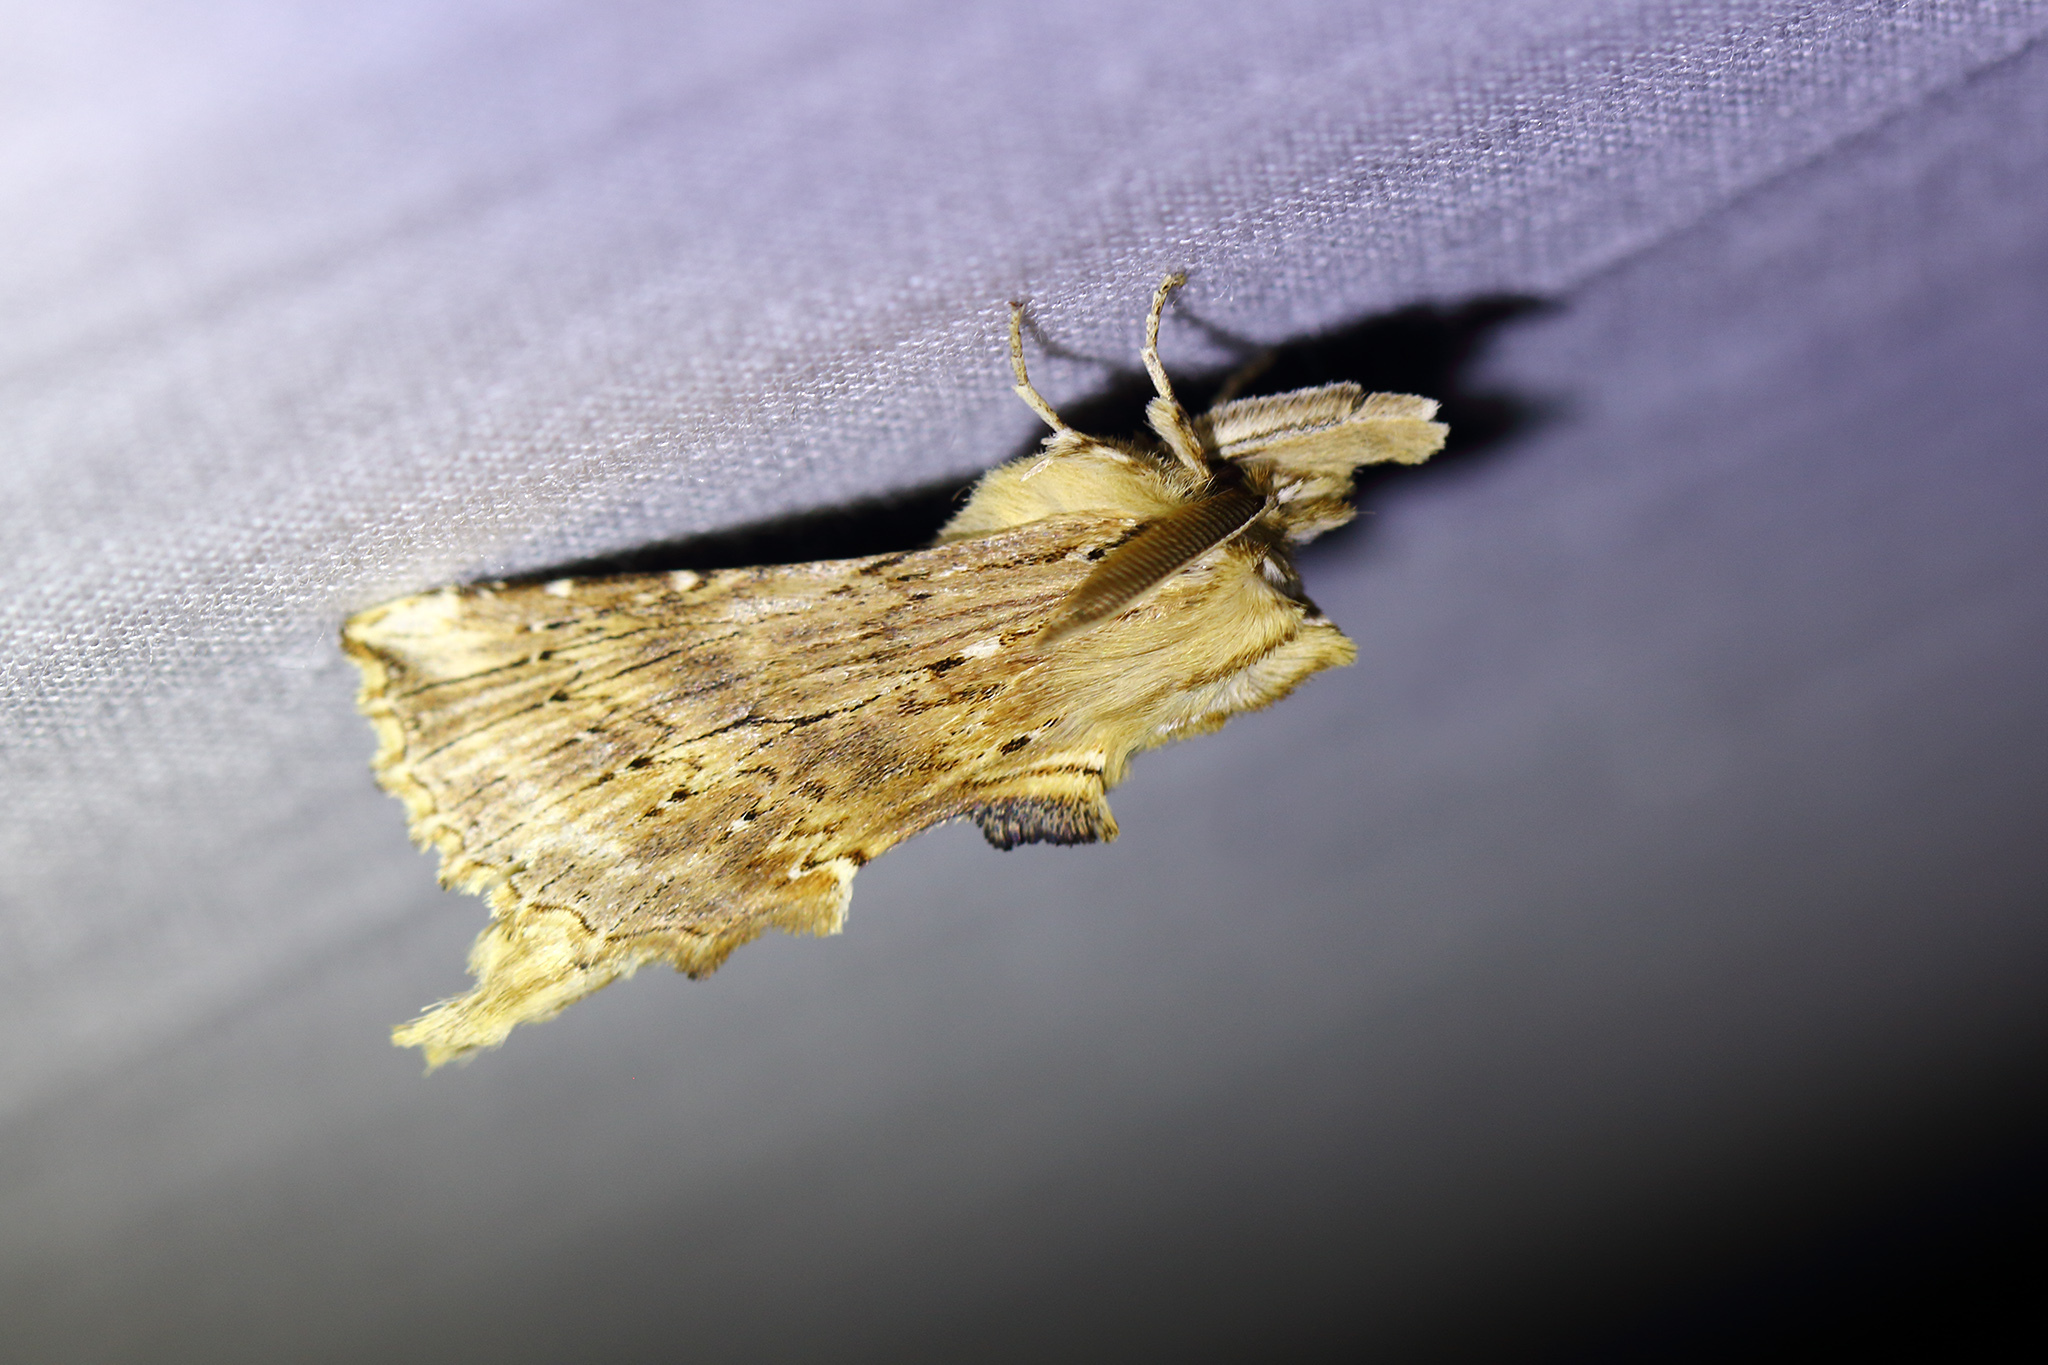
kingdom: Animalia
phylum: Arthropoda
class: Insecta
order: Lepidoptera
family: Notodontidae
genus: Pterostoma
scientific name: Pterostoma palpina
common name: Pale prominent
